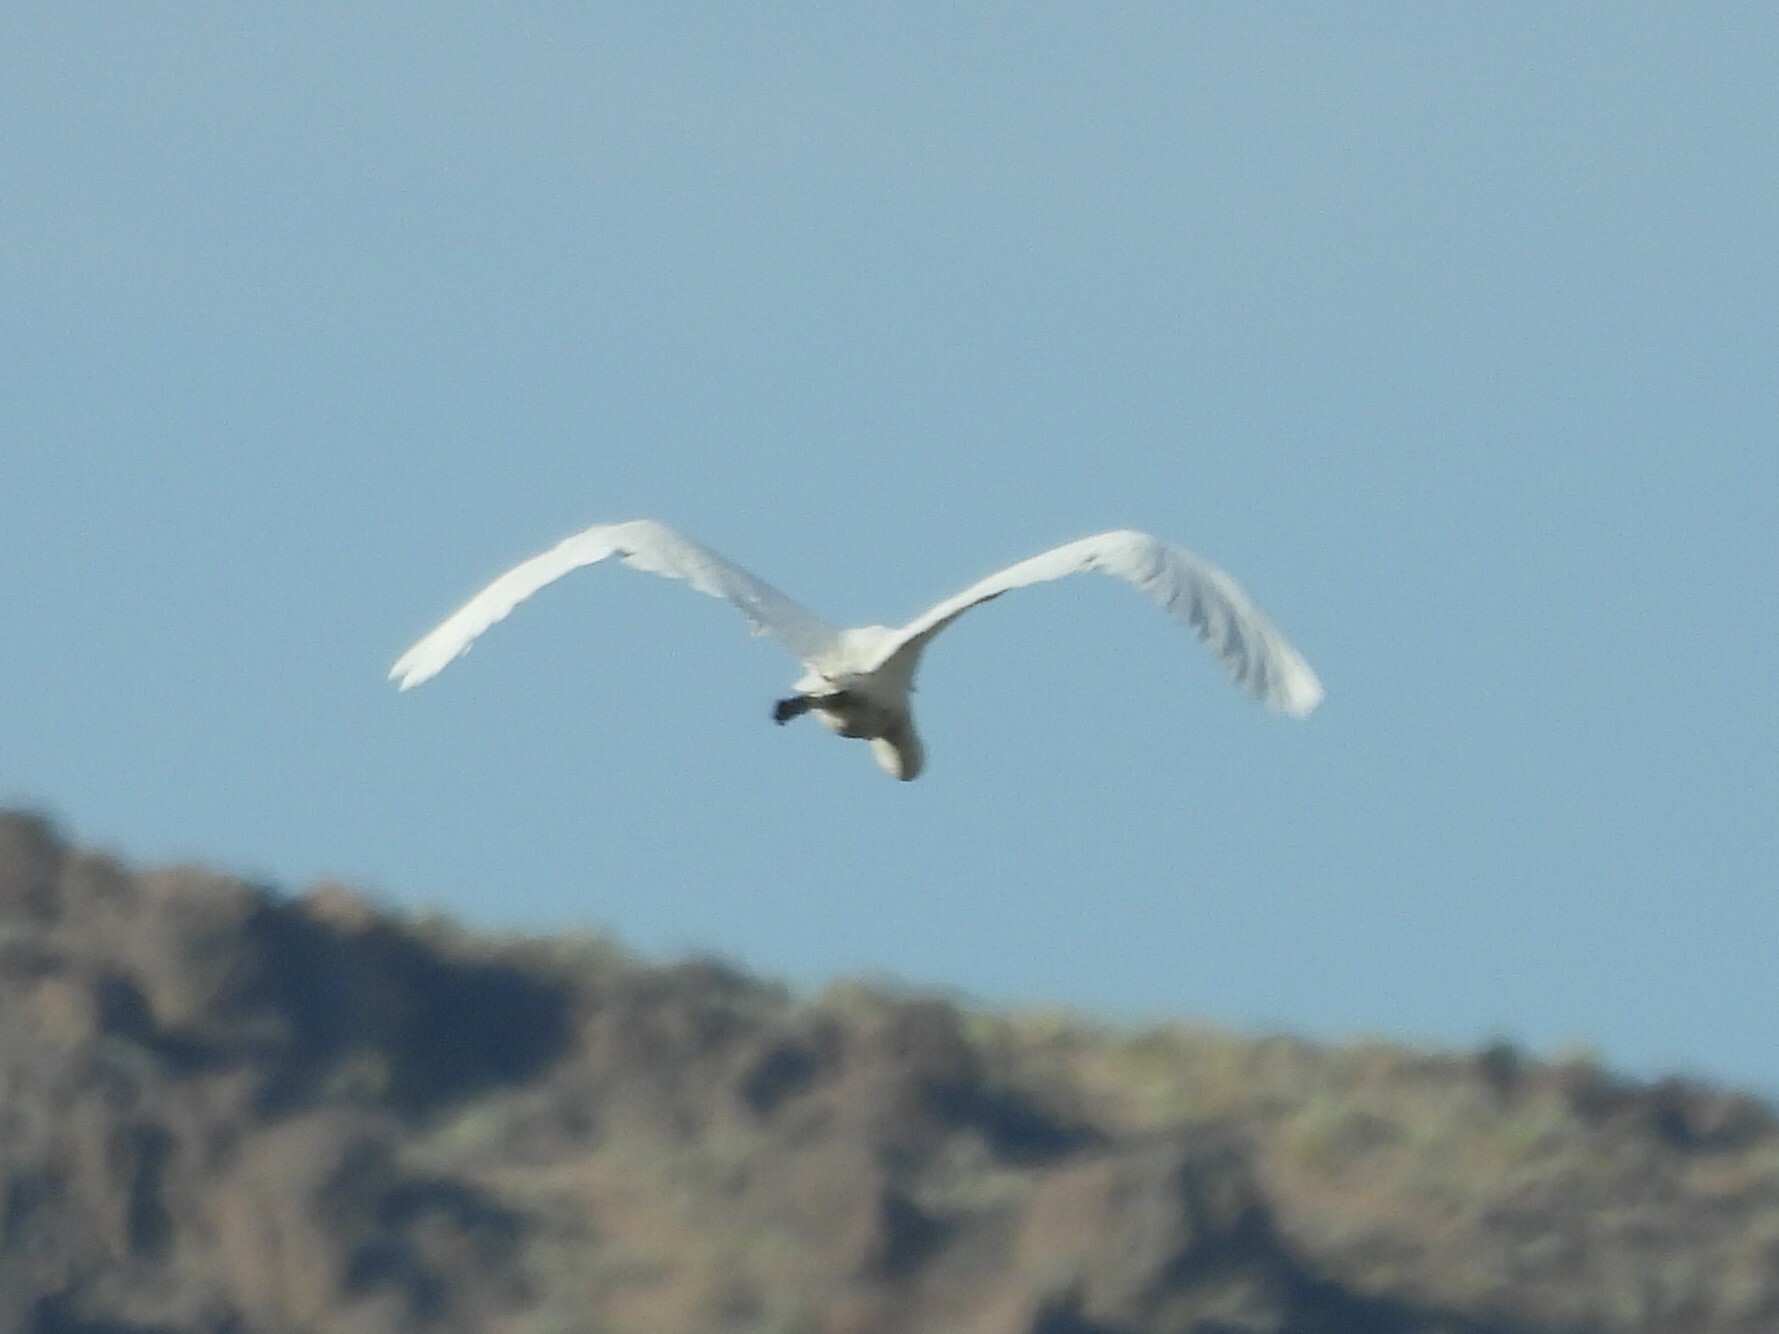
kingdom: Animalia
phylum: Chordata
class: Aves
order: Pelecaniformes
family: Ardeidae
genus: Ardea
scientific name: Ardea alba
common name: Great egret
